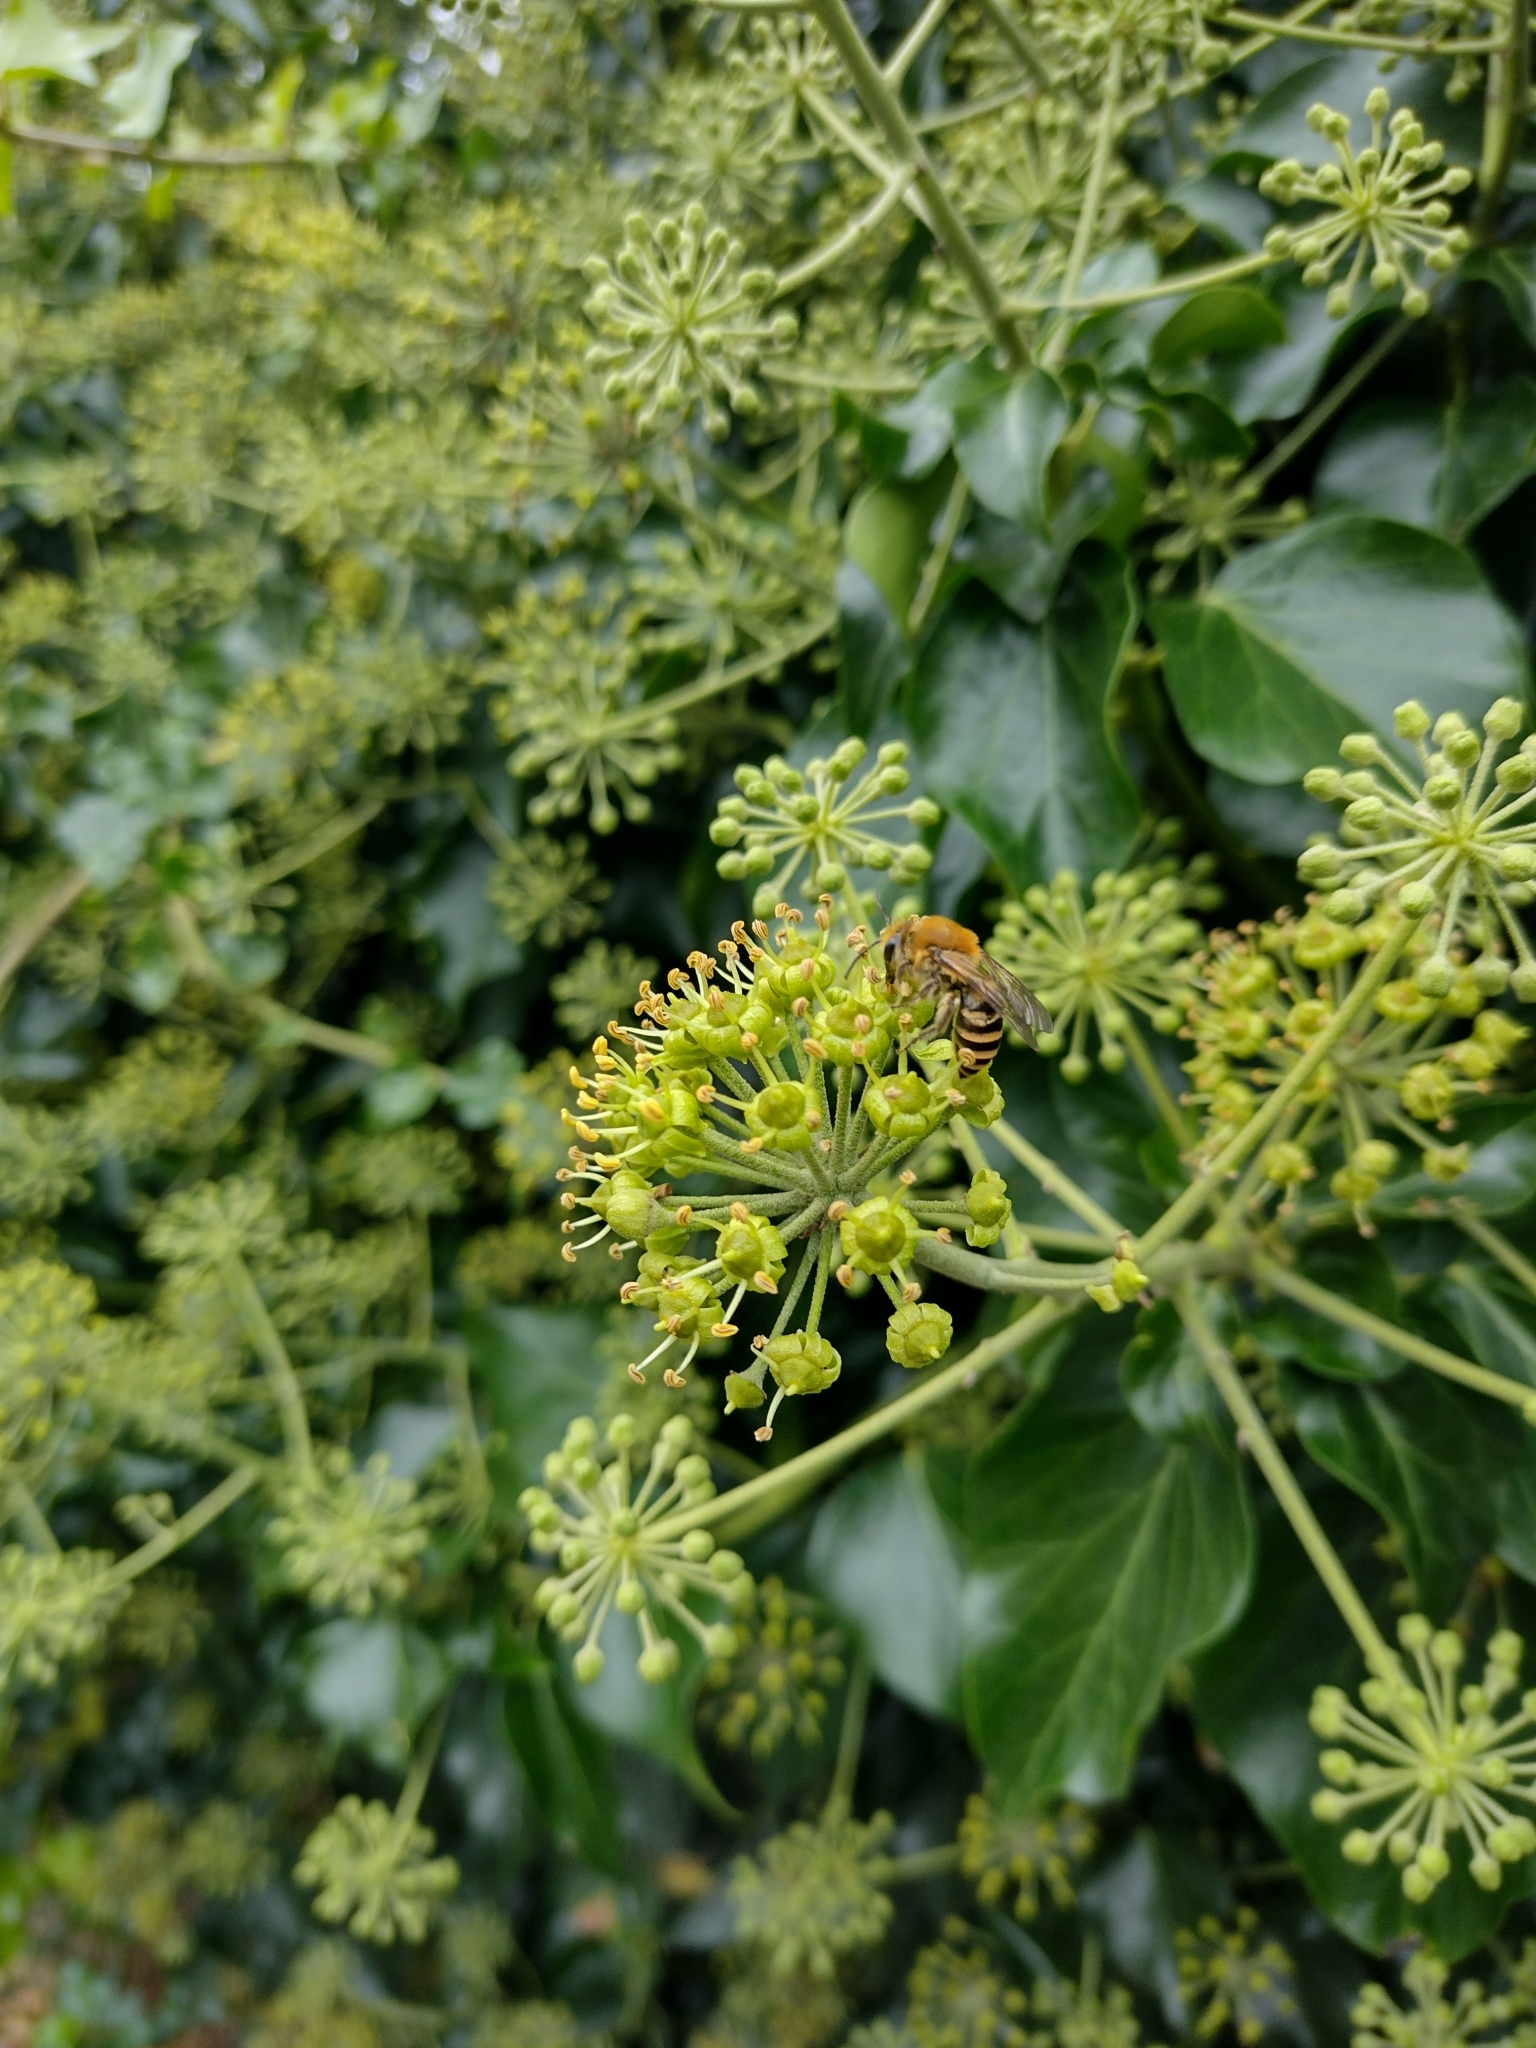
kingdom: Animalia
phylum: Arthropoda
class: Insecta
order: Hymenoptera
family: Colletidae
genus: Colletes
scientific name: Colletes hederae
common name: Ivy bee
